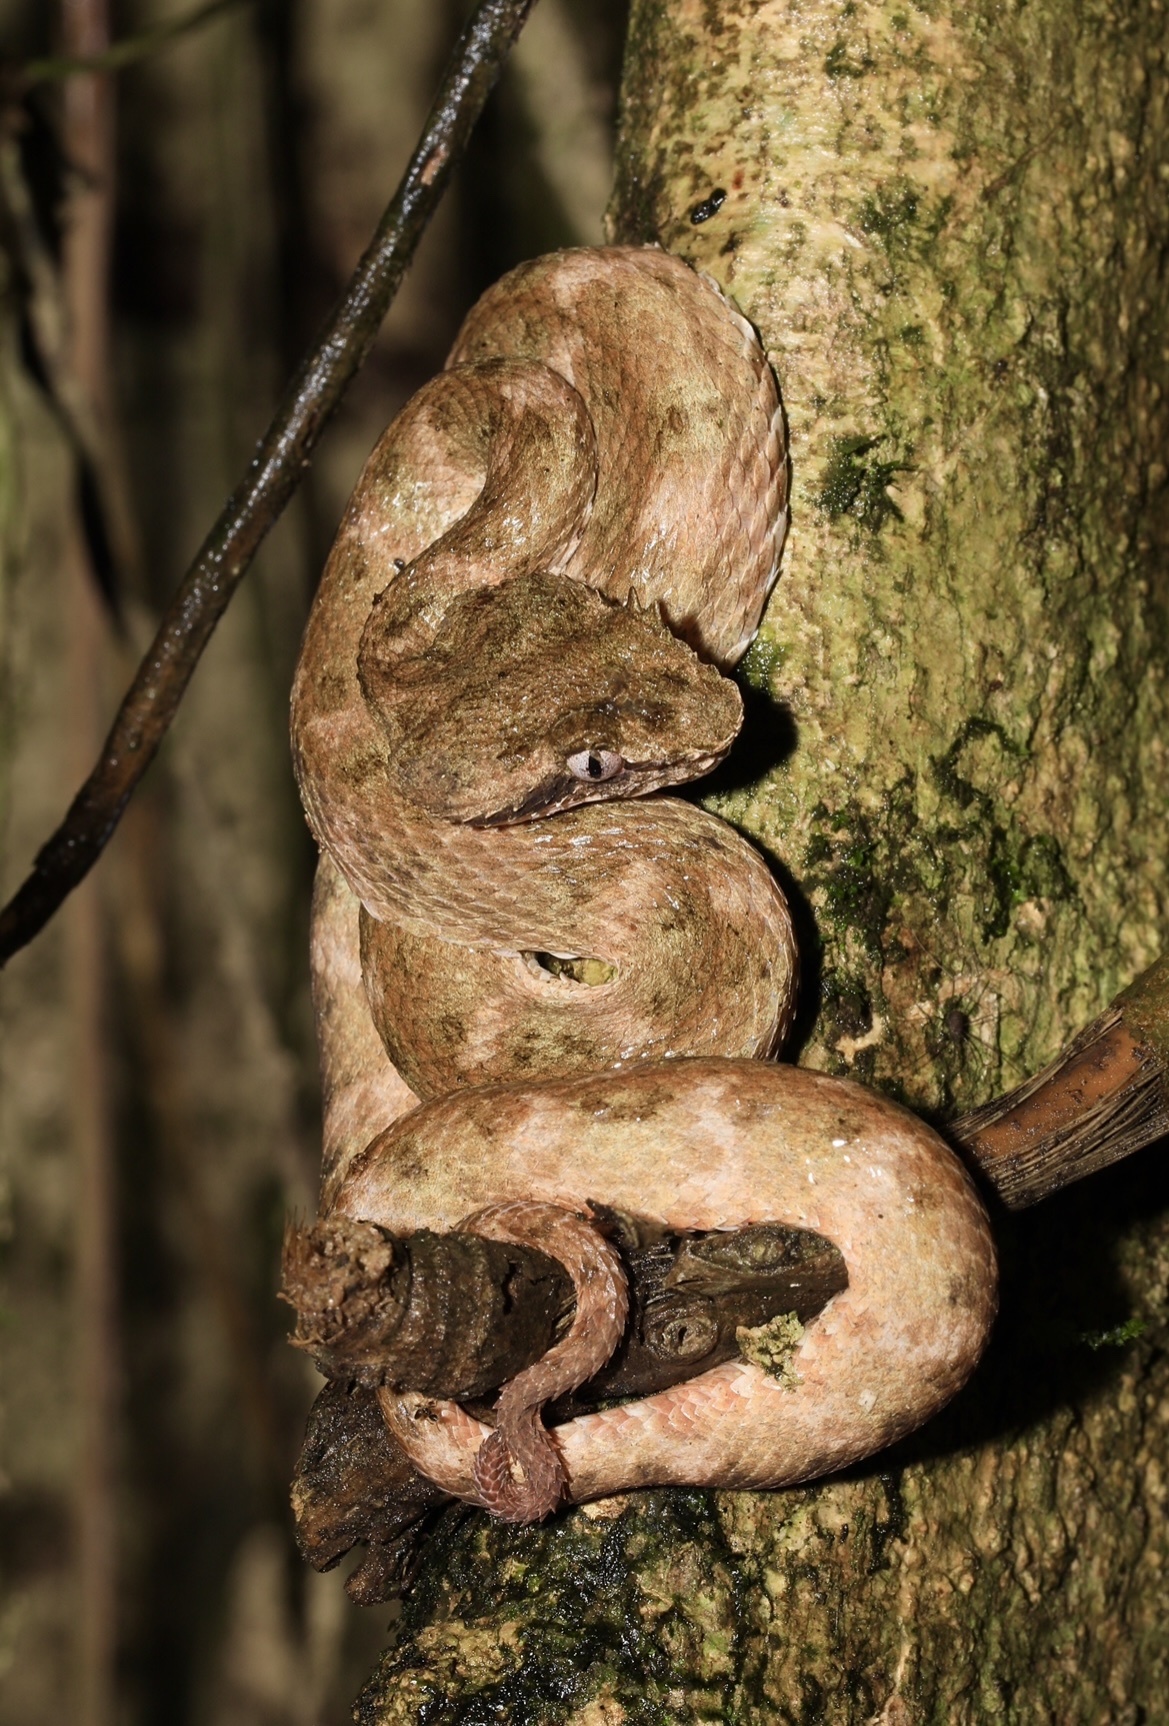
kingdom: Animalia
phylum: Chordata
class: Squamata
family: Viperidae
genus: Bothriechis
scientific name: Bothriechis schlegelii
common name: Eyelash viper
